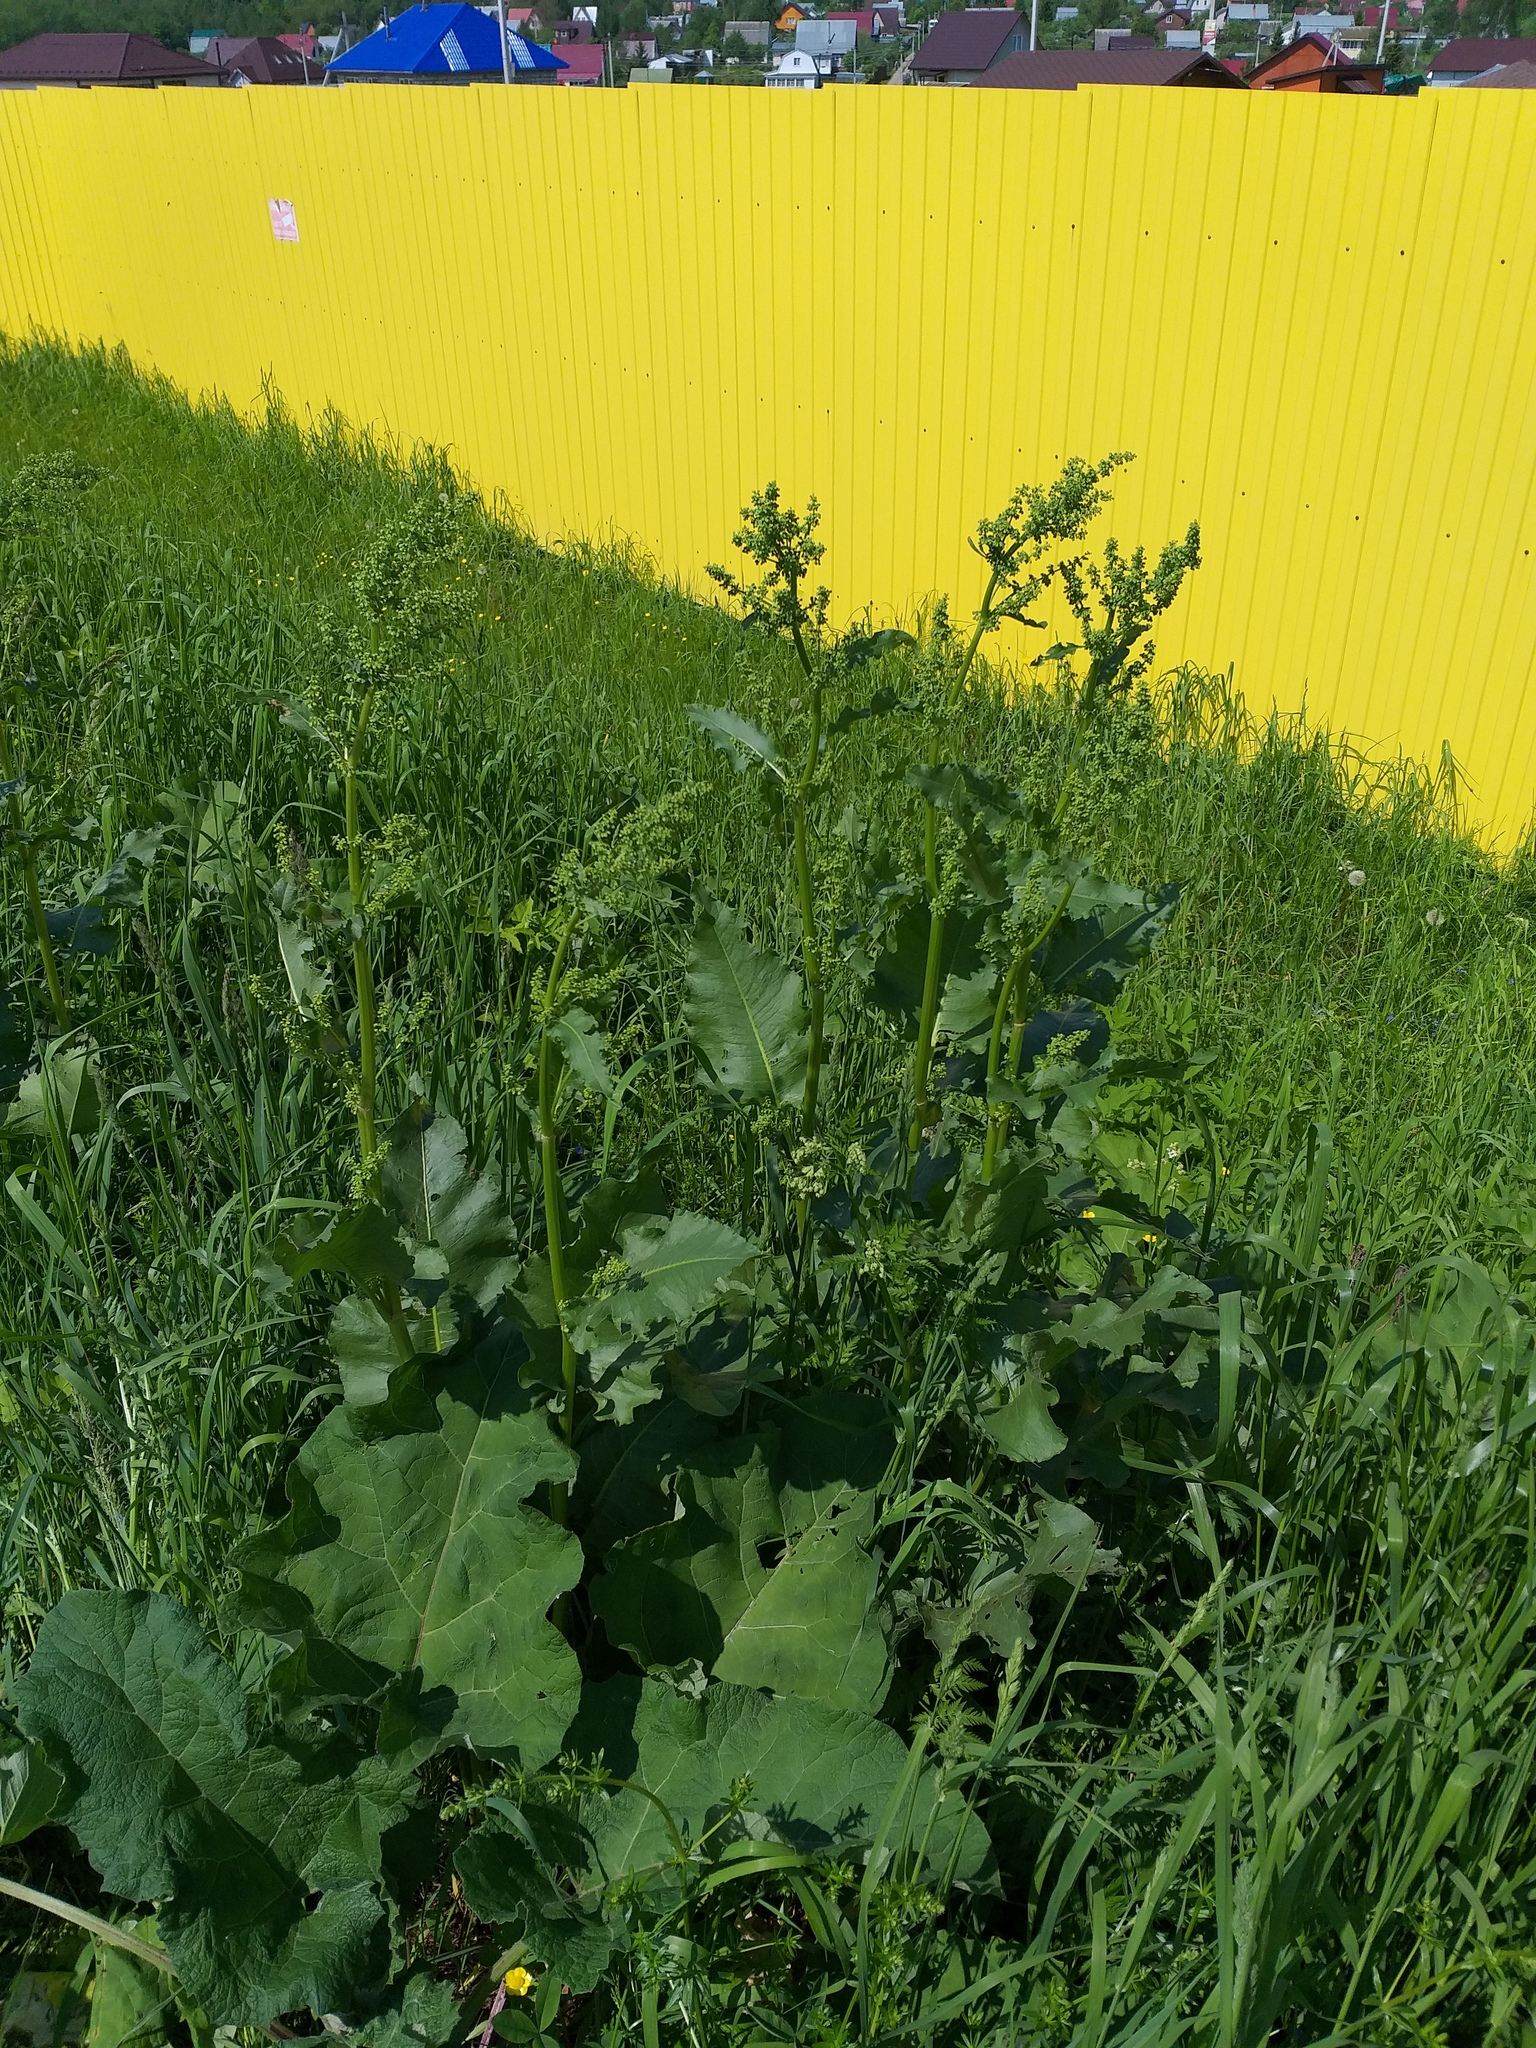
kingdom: Plantae
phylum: Tracheophyta
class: Magnoliopsida
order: Caryophyllales
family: Polygonaceae
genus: Rumex
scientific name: Rumex confertus
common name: Russian dock
